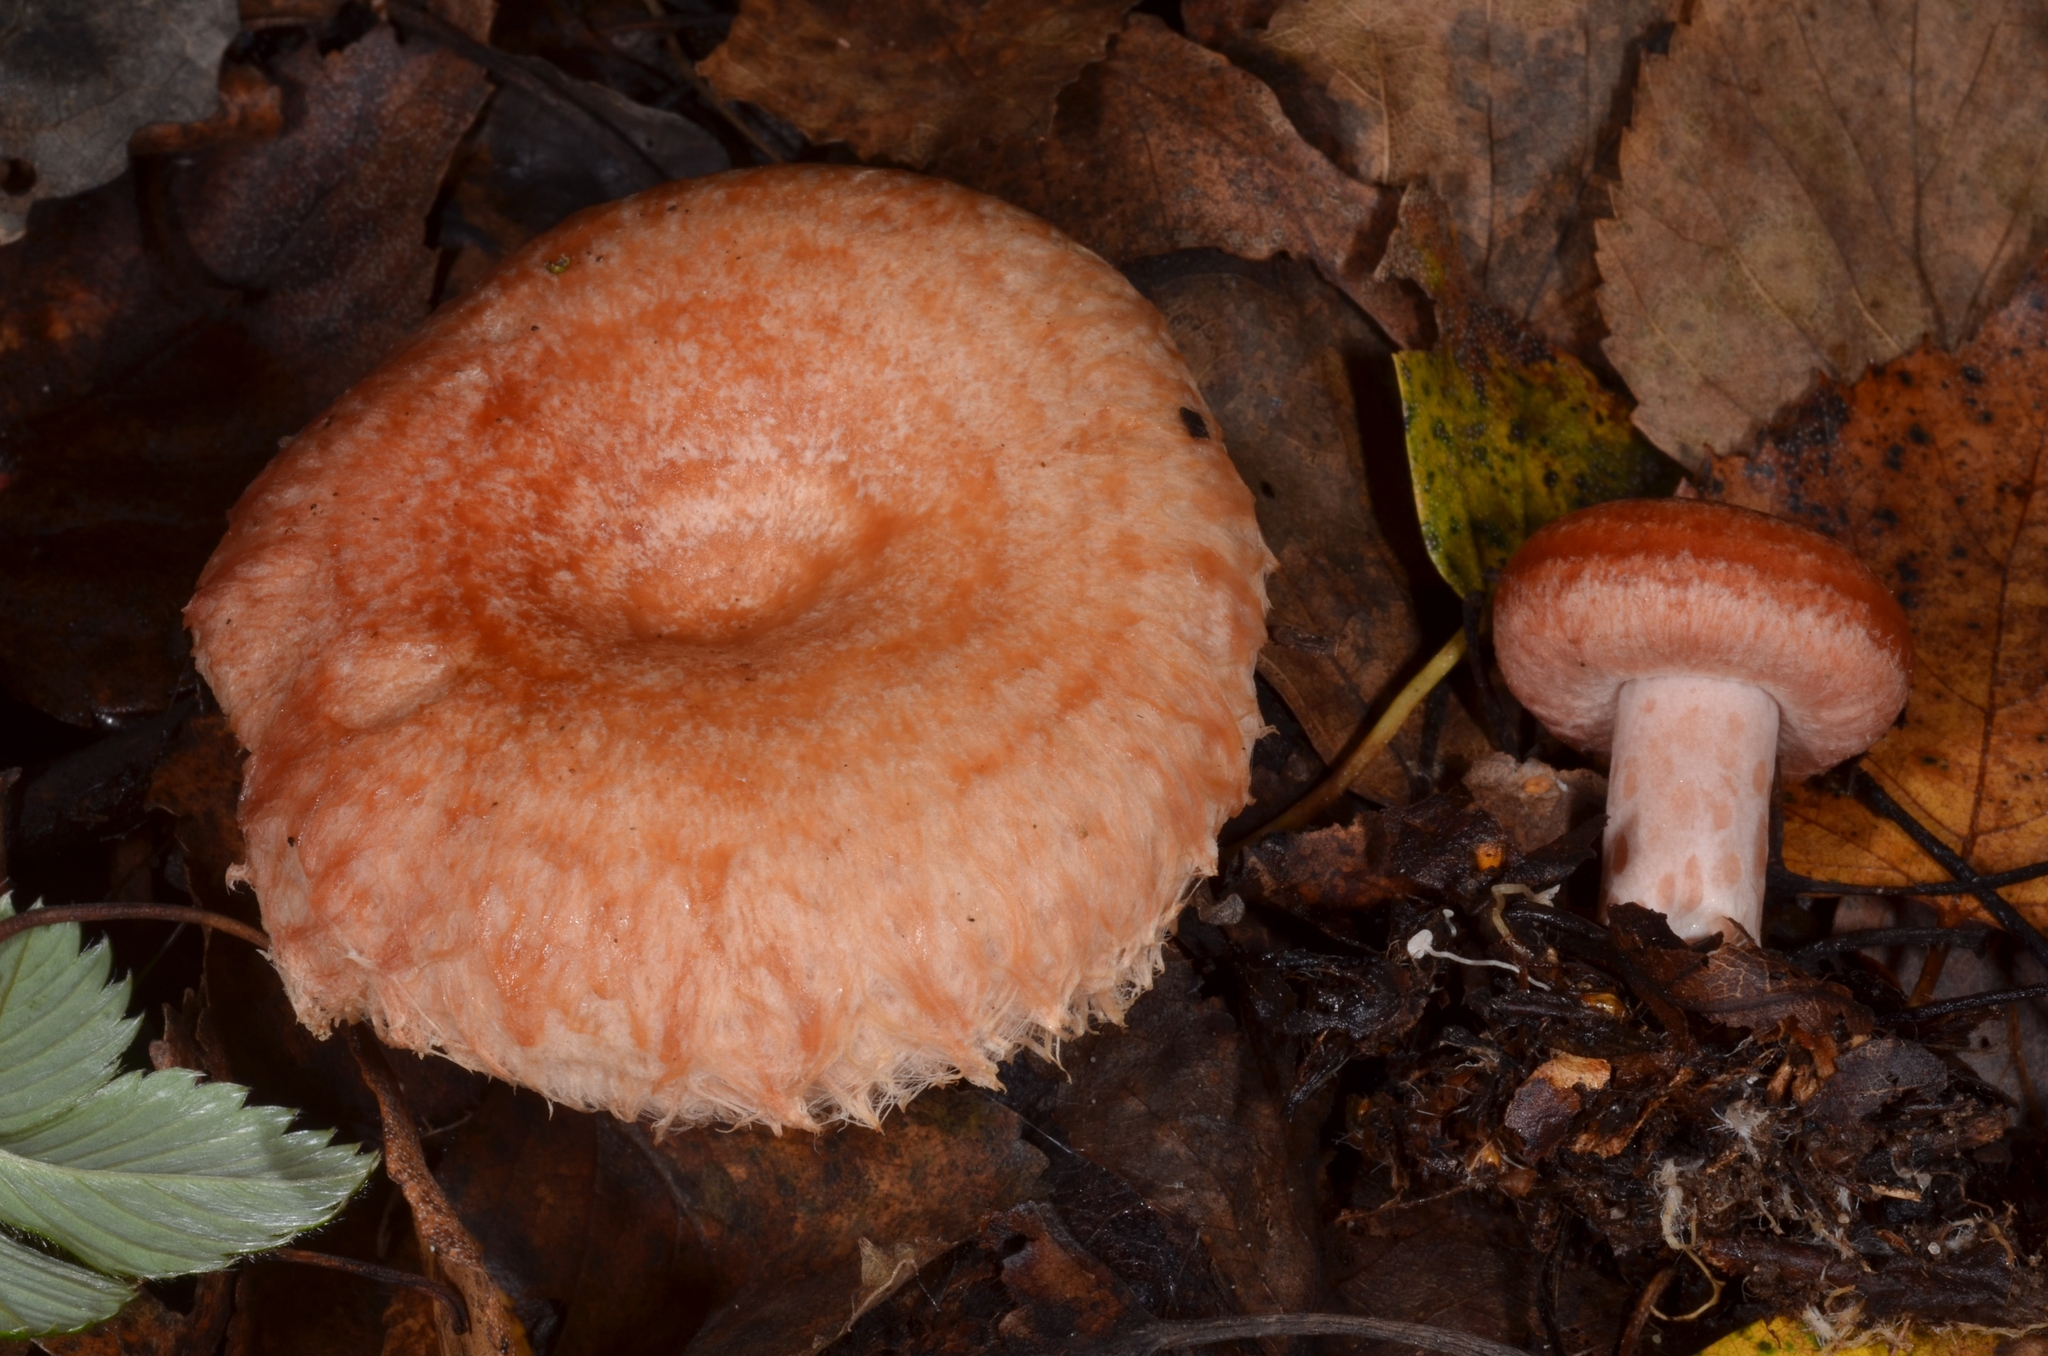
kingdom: Fungi
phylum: Basidiomycota
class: Agaricomycetes
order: Russulales
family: Russulaceae
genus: Lactarius
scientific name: Lactarius torminosus
